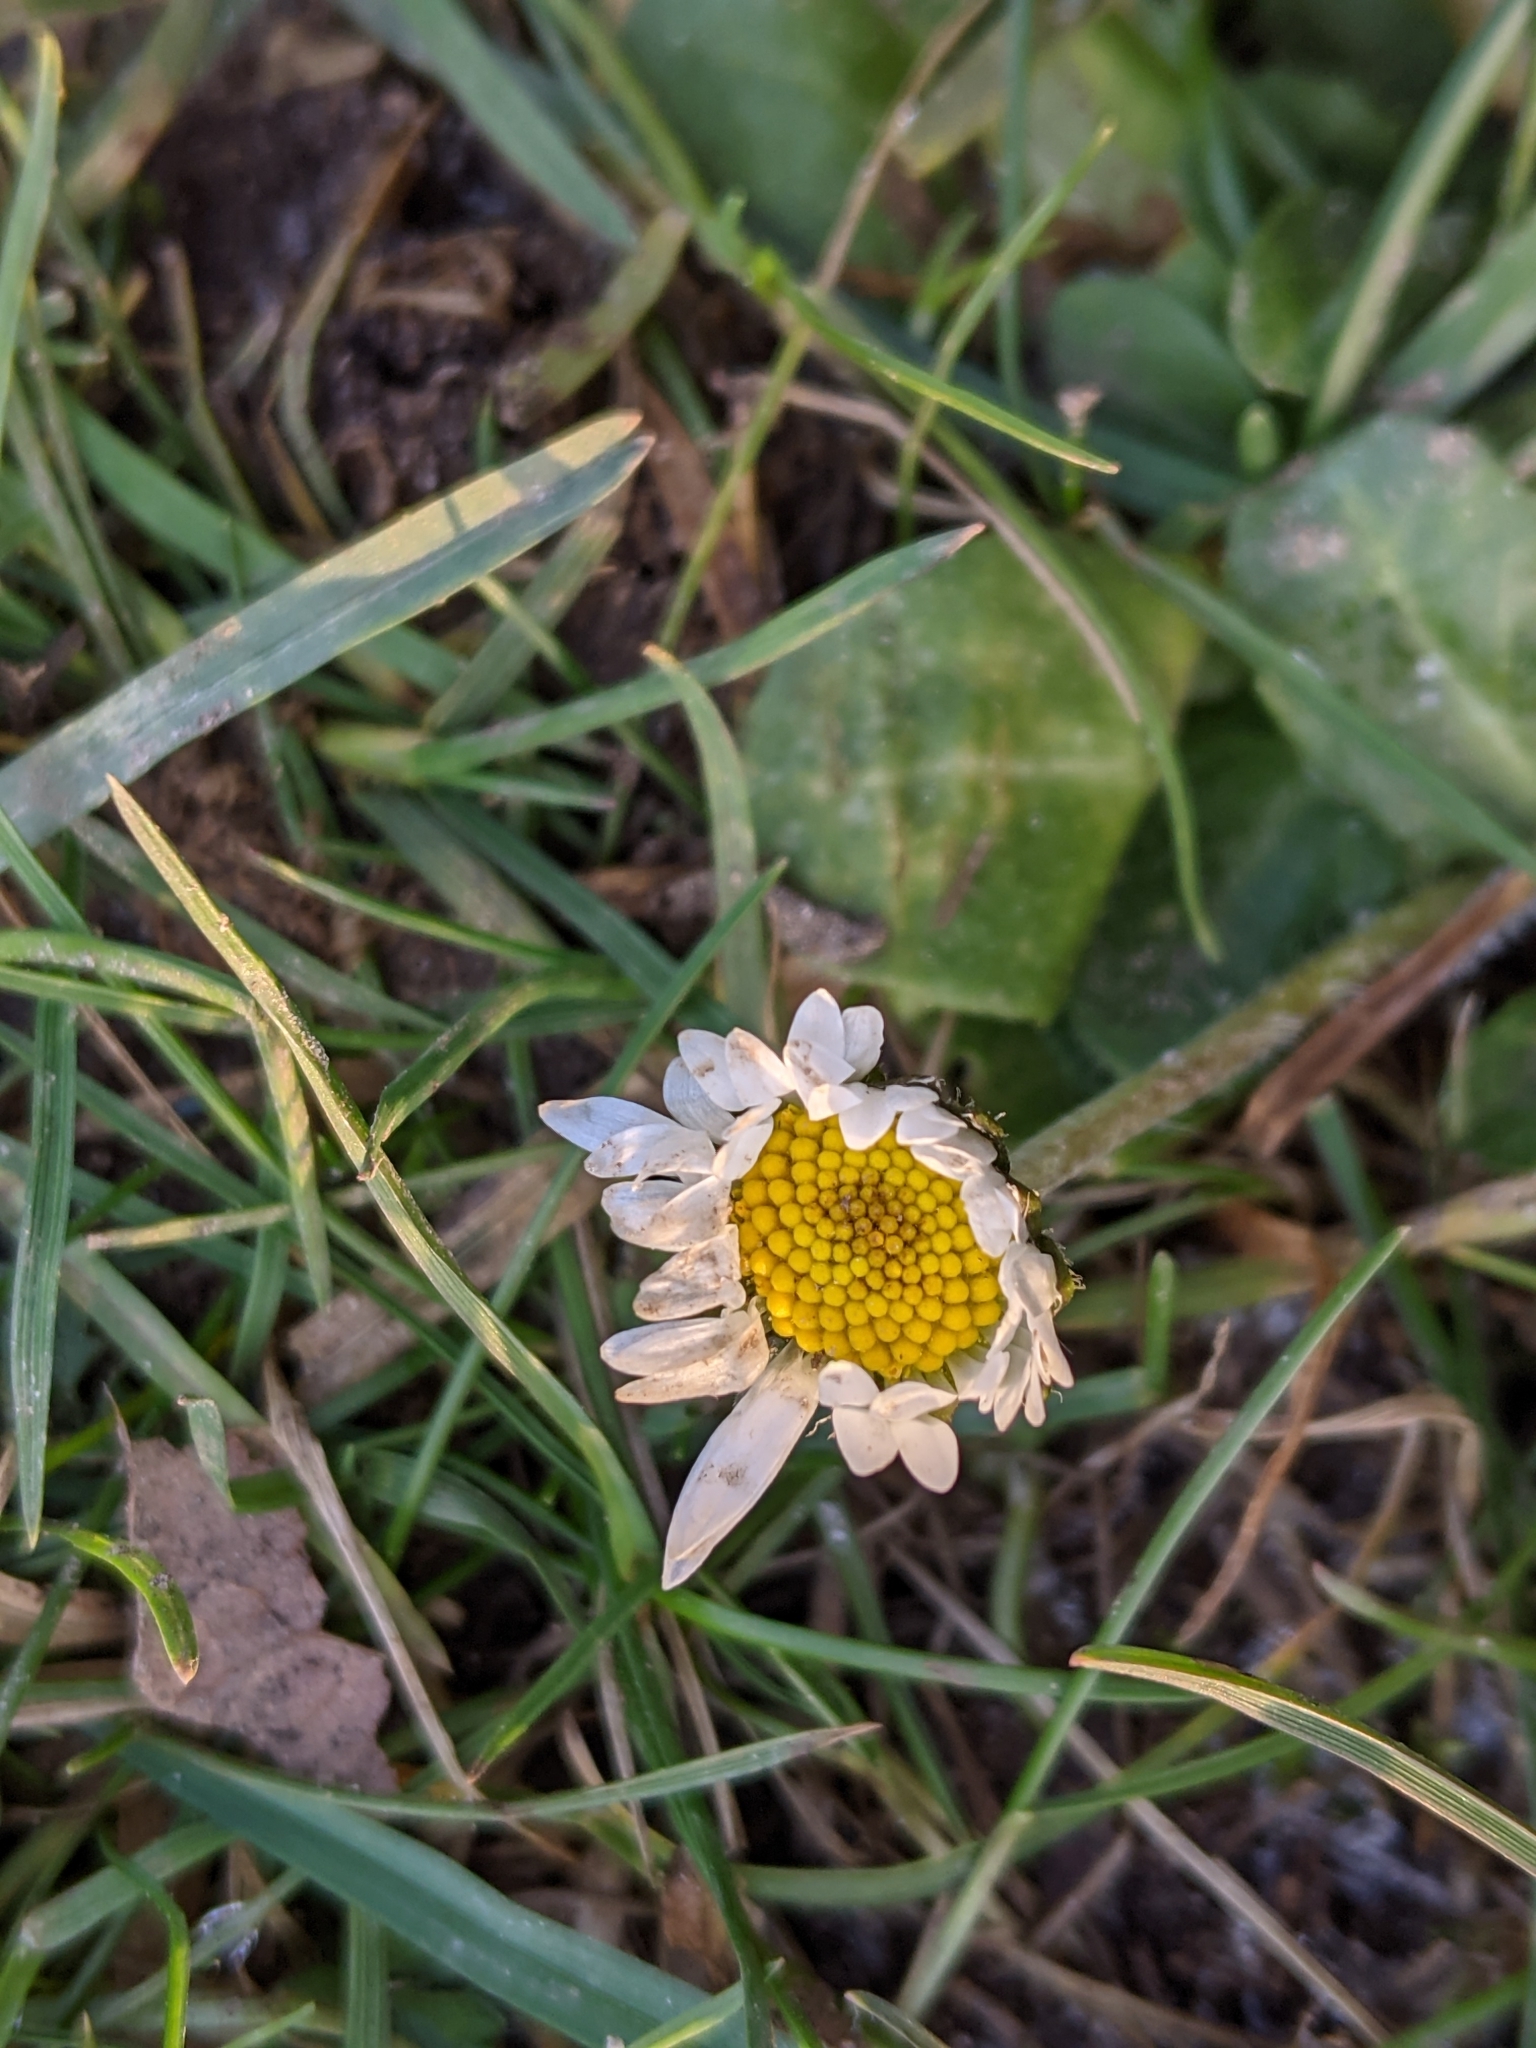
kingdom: Plantae
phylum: Tracheophyta
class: Magnoliopsida
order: Asterales
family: Asteraceae
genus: Bellis
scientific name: Bellis perennis
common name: Lawndaisy
